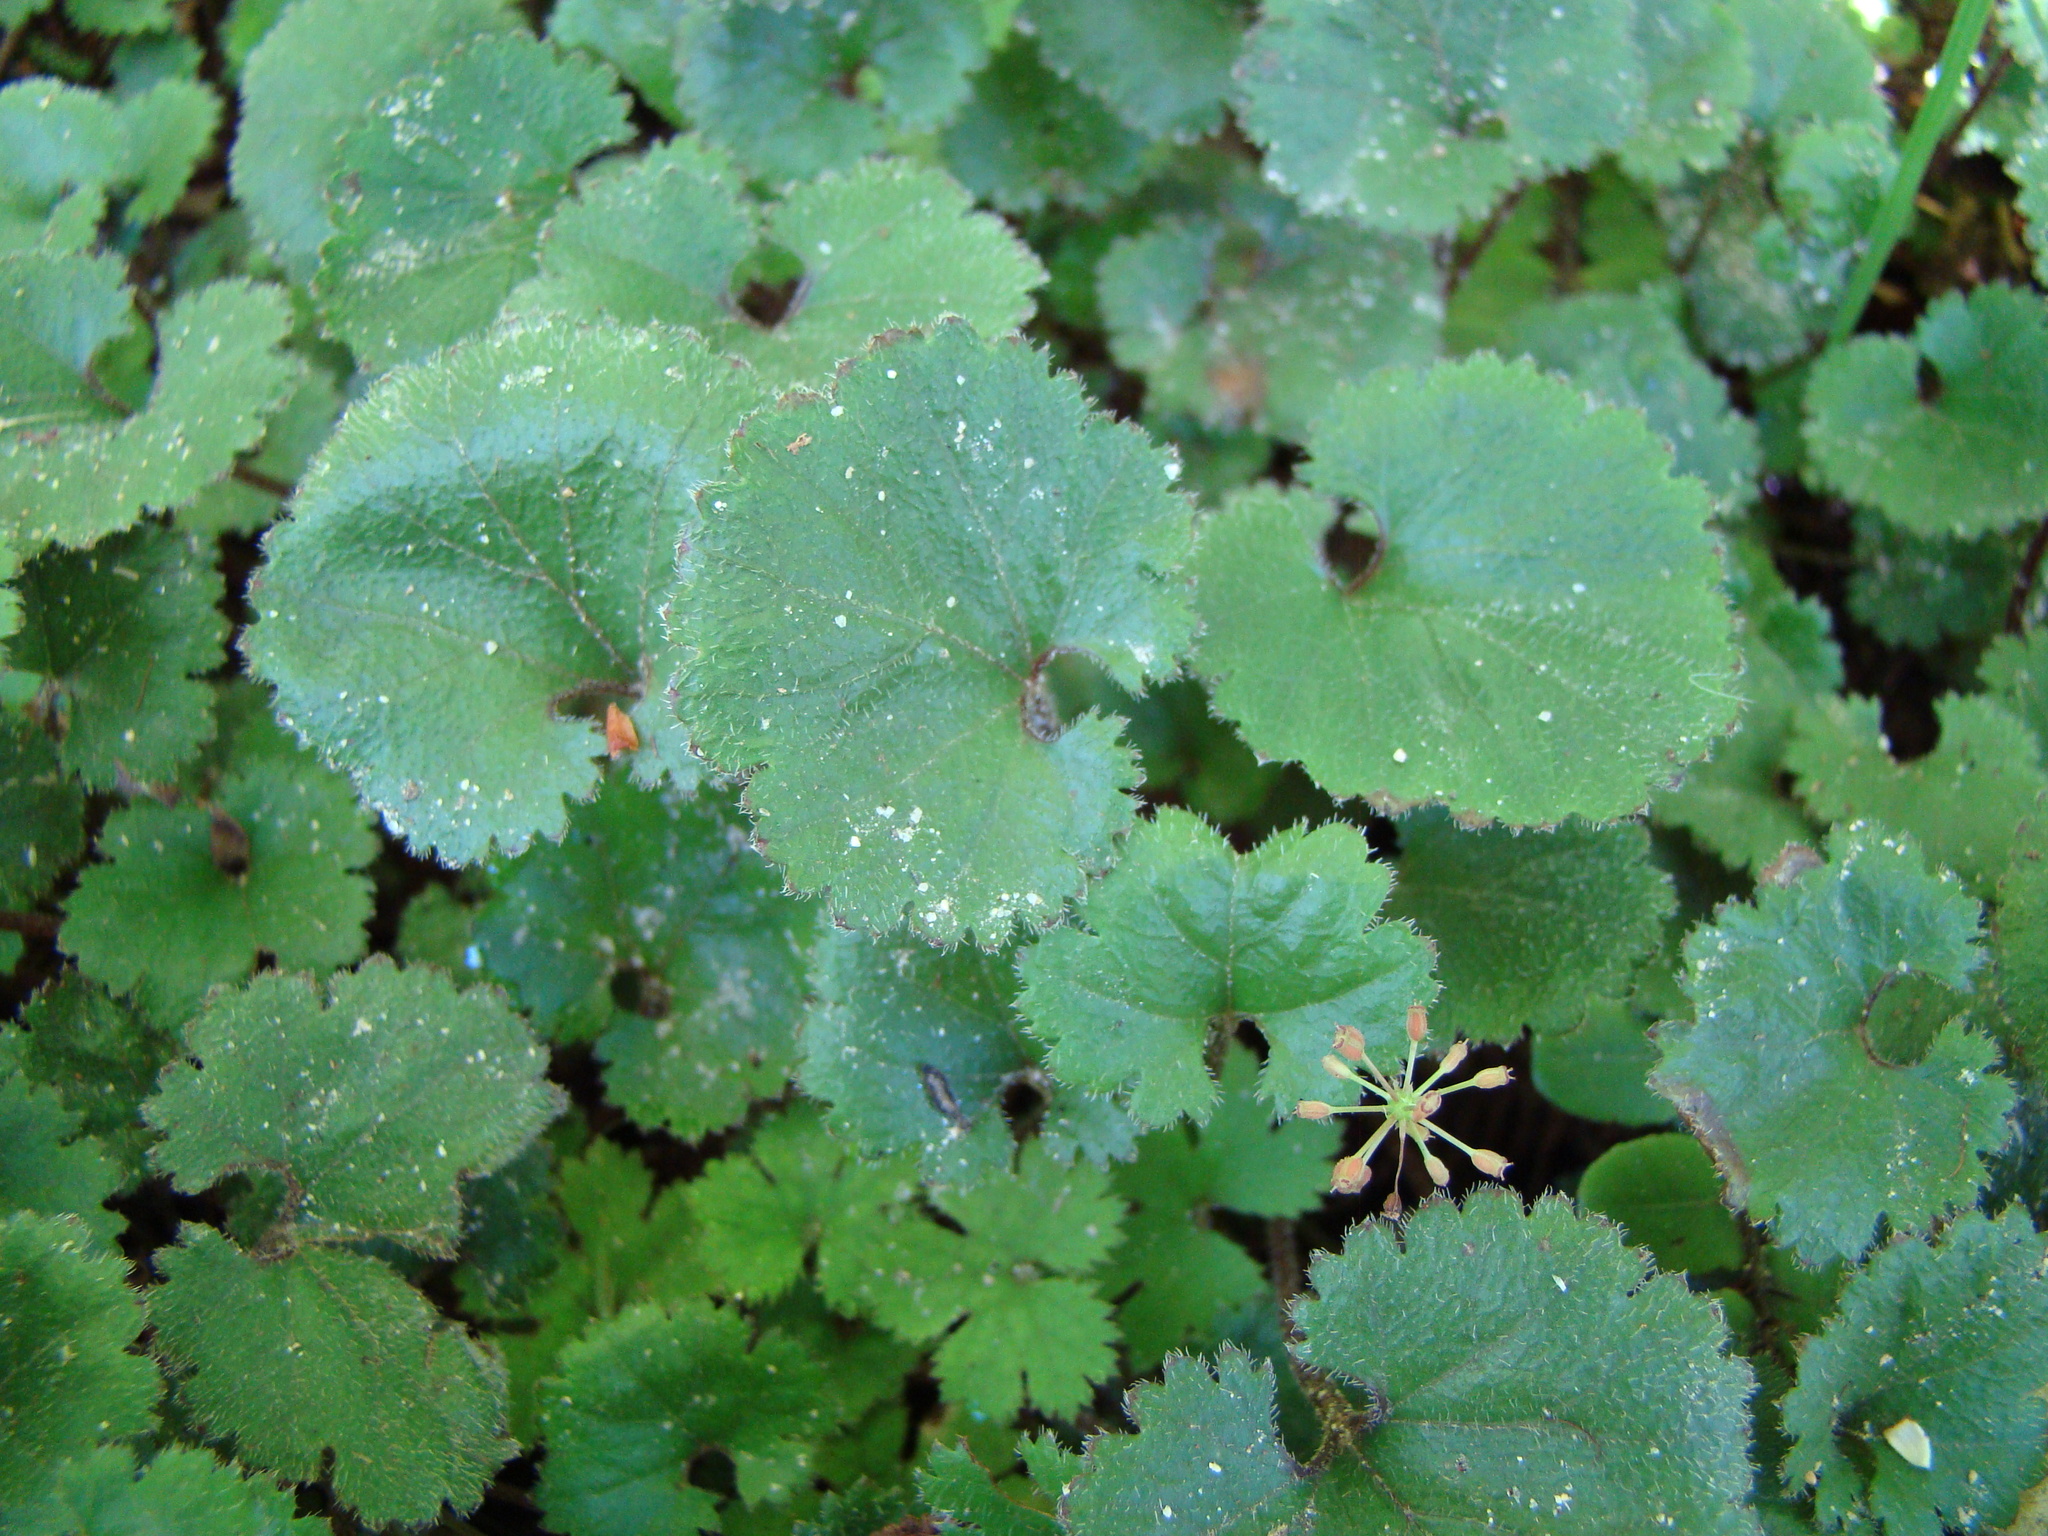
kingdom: Plantae
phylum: Tracheophyta
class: Magnoliopsida
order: Gunnerales
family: Gunneraceae
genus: Gunnera
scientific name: Gunnera monoica
